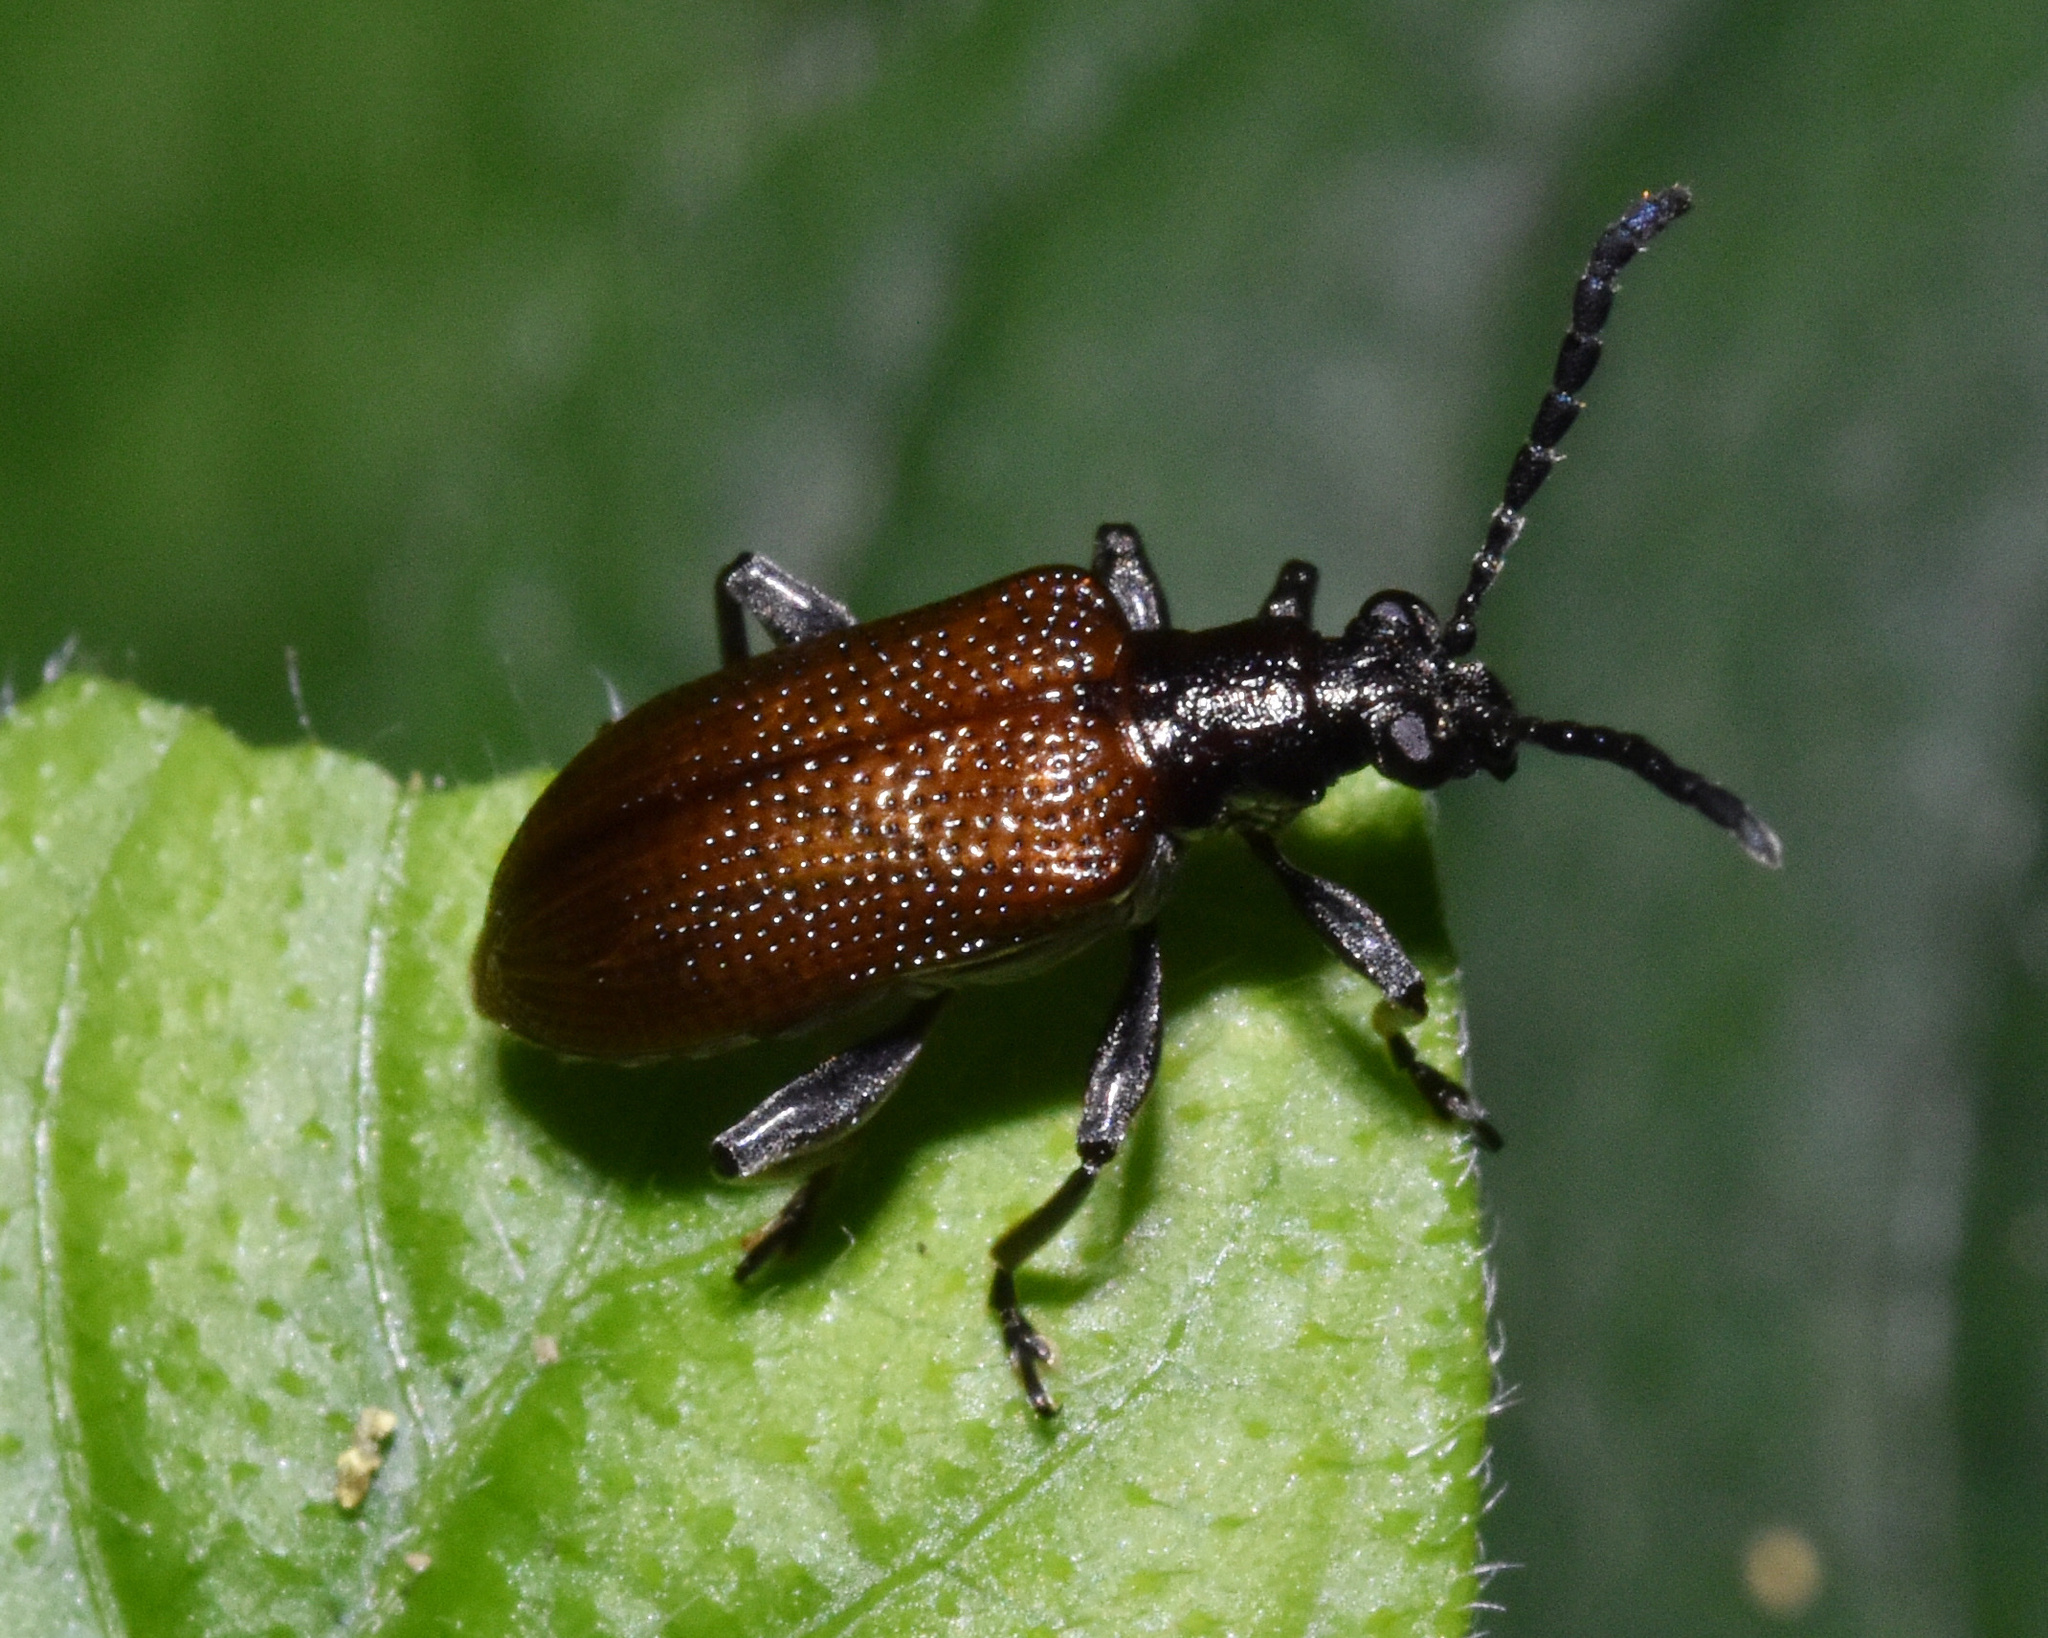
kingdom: Animalia
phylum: Arthropoda
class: Insecta
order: Coleoptera
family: Chrysomelidae
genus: Lema
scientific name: Lema
